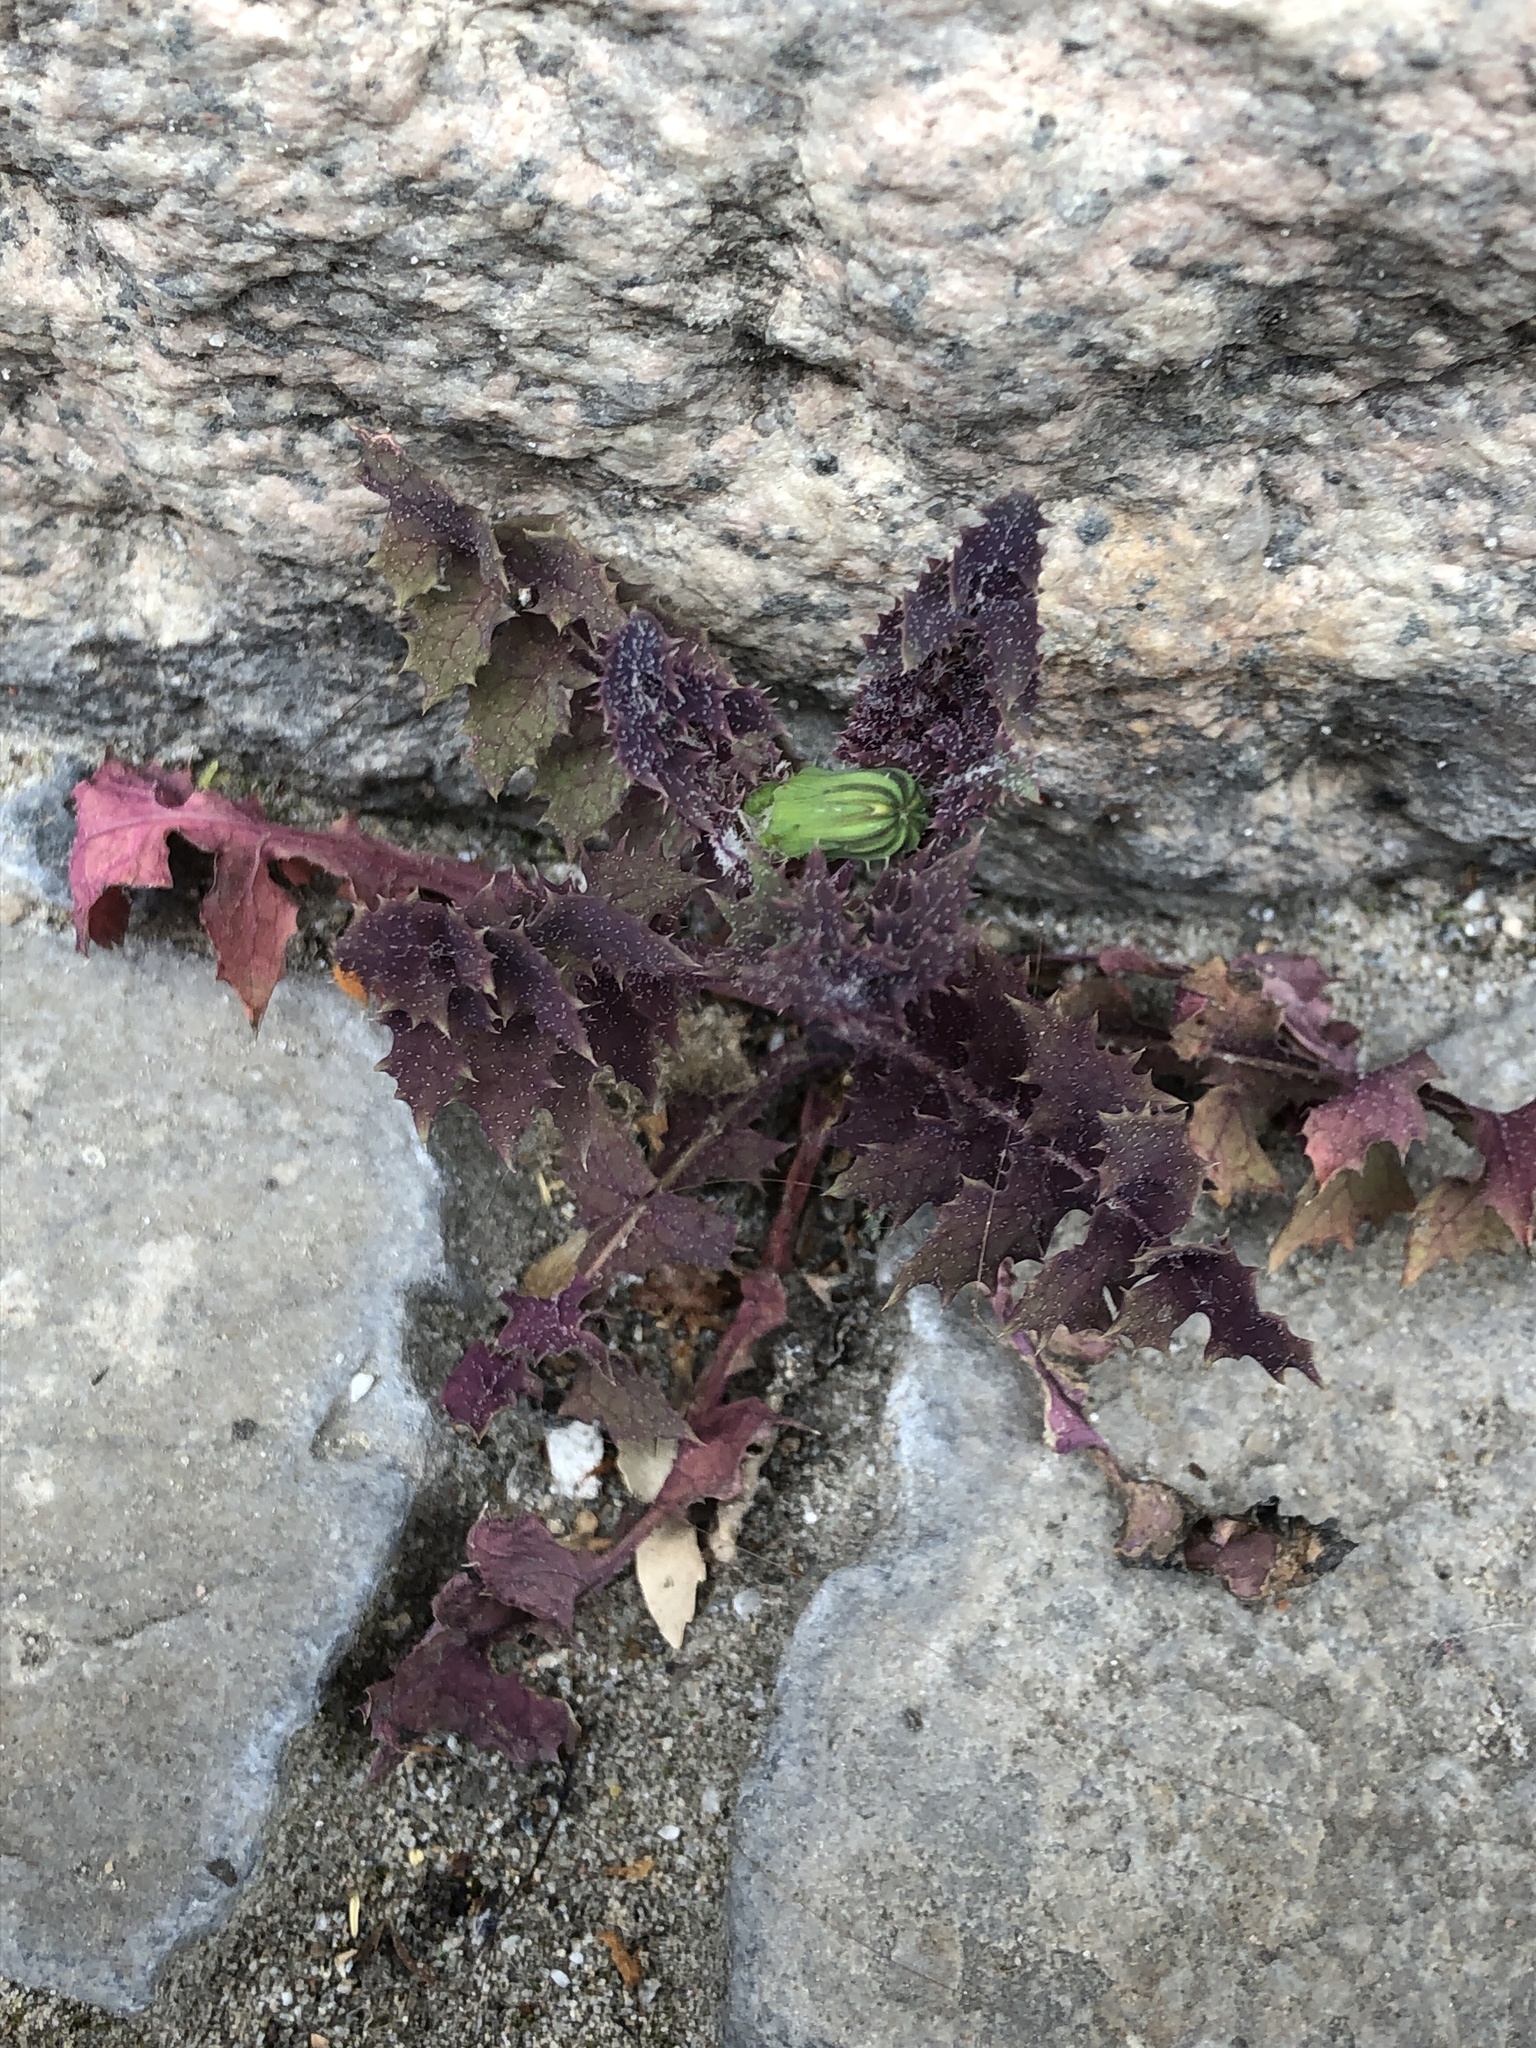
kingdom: Plantae
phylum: Tracheophyta
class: Magnoliopsida
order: Asterales
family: Asteraceae
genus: Sonchus
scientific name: Sonchus oleraceus
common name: Common sowthistle
